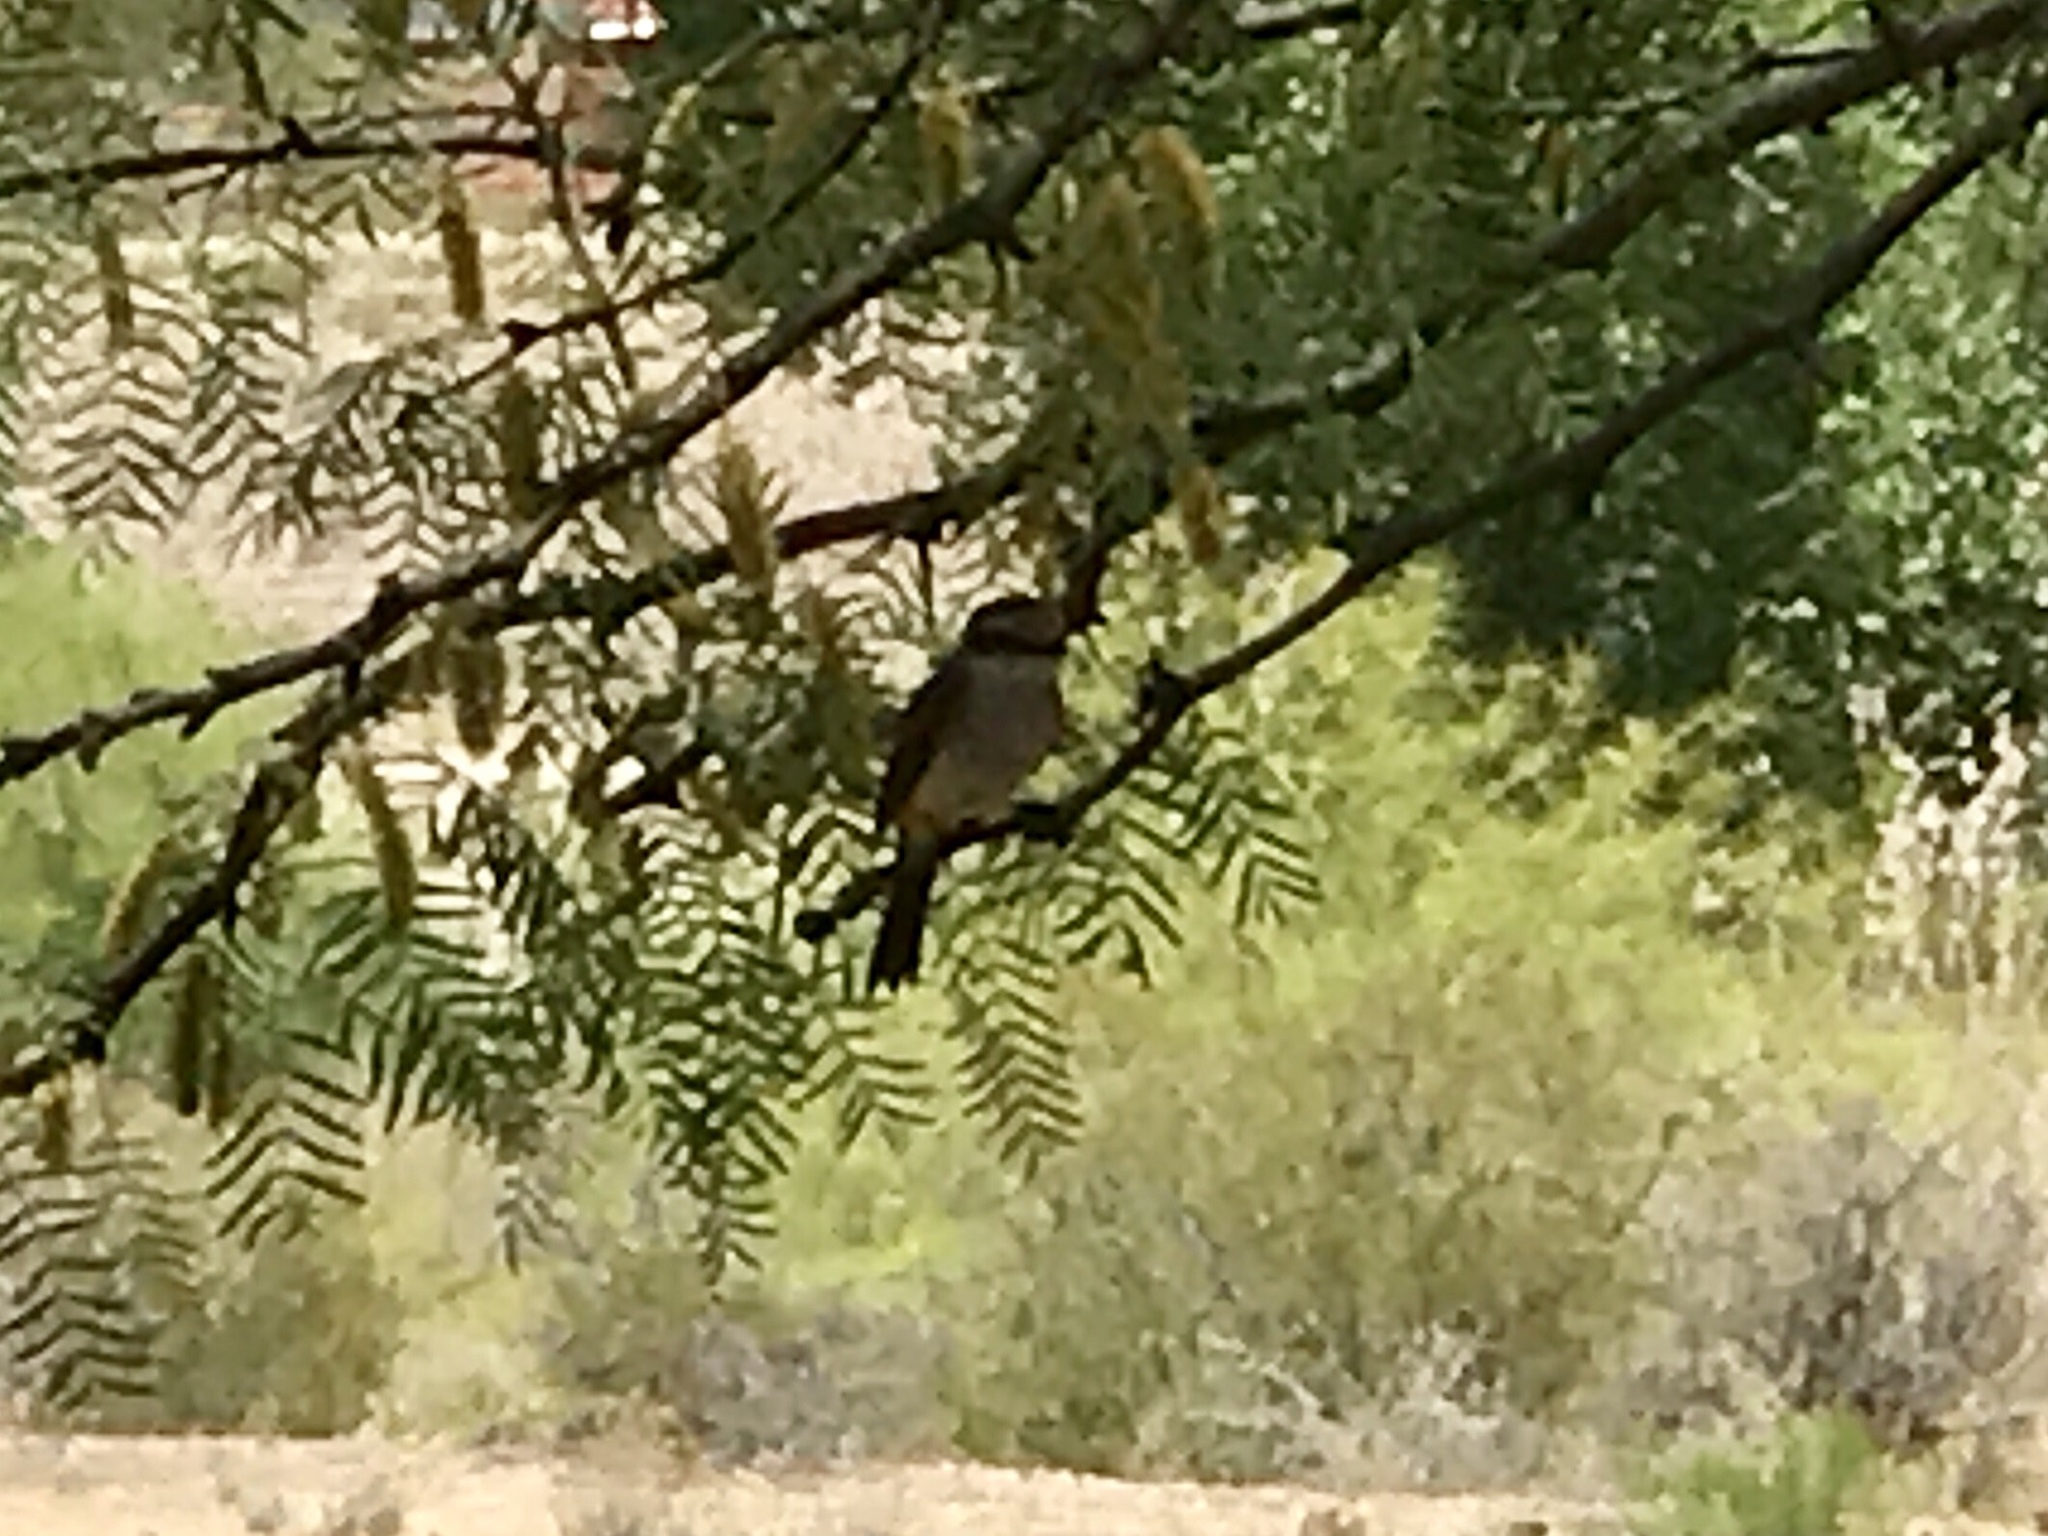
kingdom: Animalia
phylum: Chordata
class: Aves
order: Passeriformes
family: Tyrannidae
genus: Pyrocephalus
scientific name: Pyrocephalus rubinus
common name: Vermilion flycatcher
